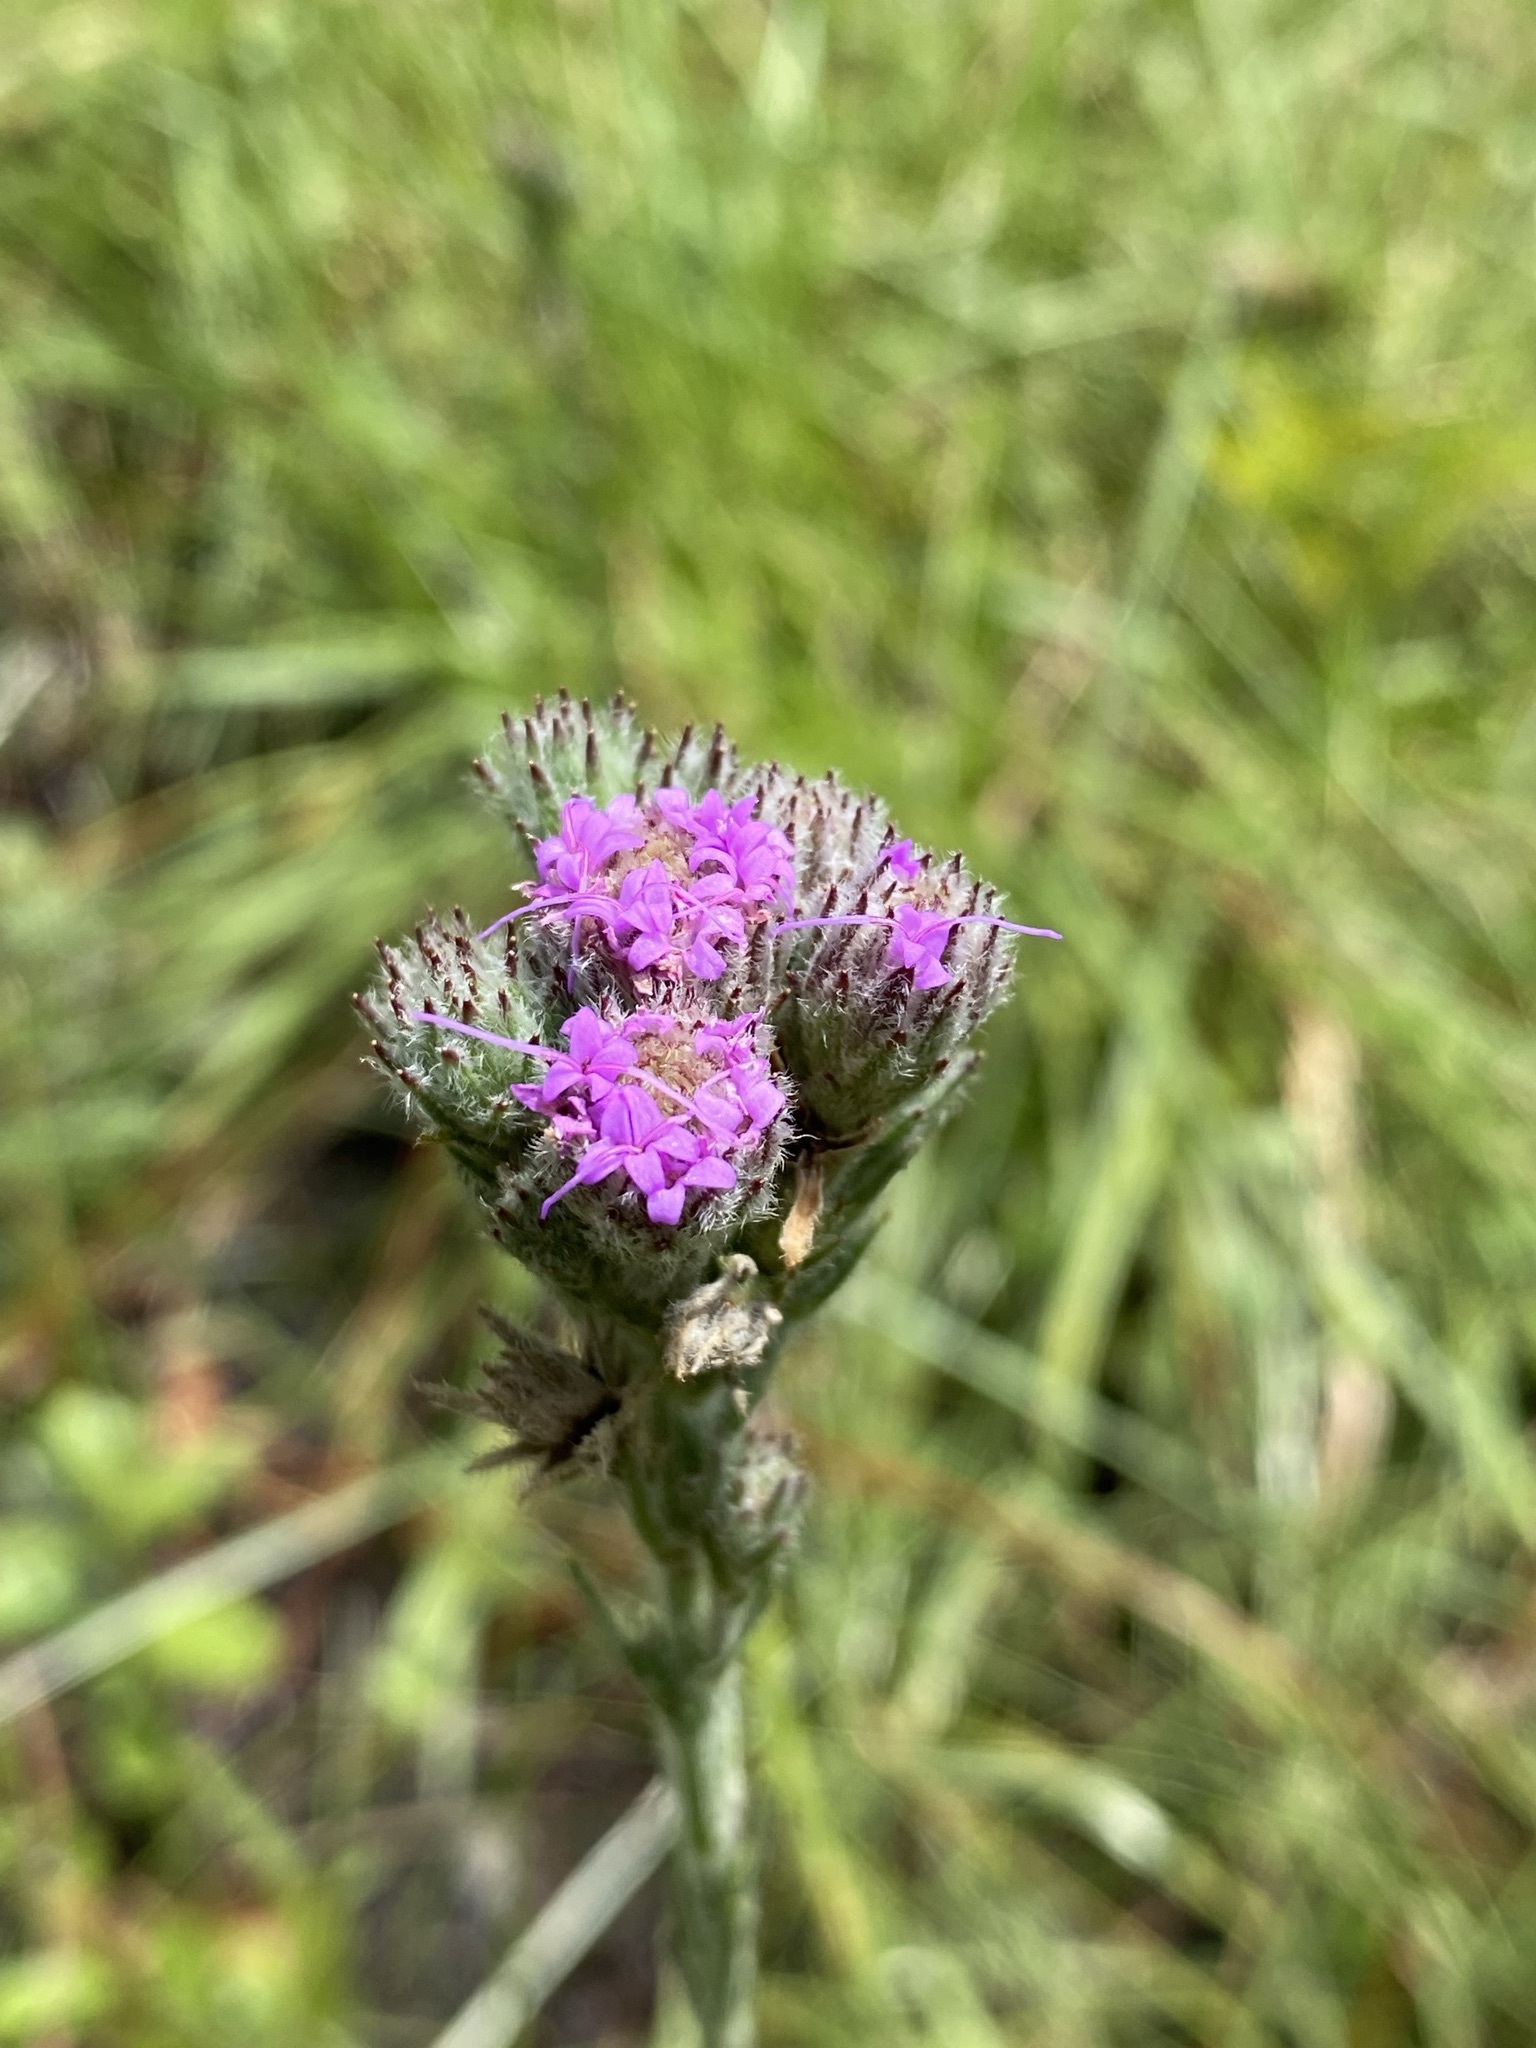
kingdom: Plantae
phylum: Tracheophyta
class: Magnoliopsida
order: Asterales
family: Asteraceae
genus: Carphephorus
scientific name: Carphephorus pseudoliatris
